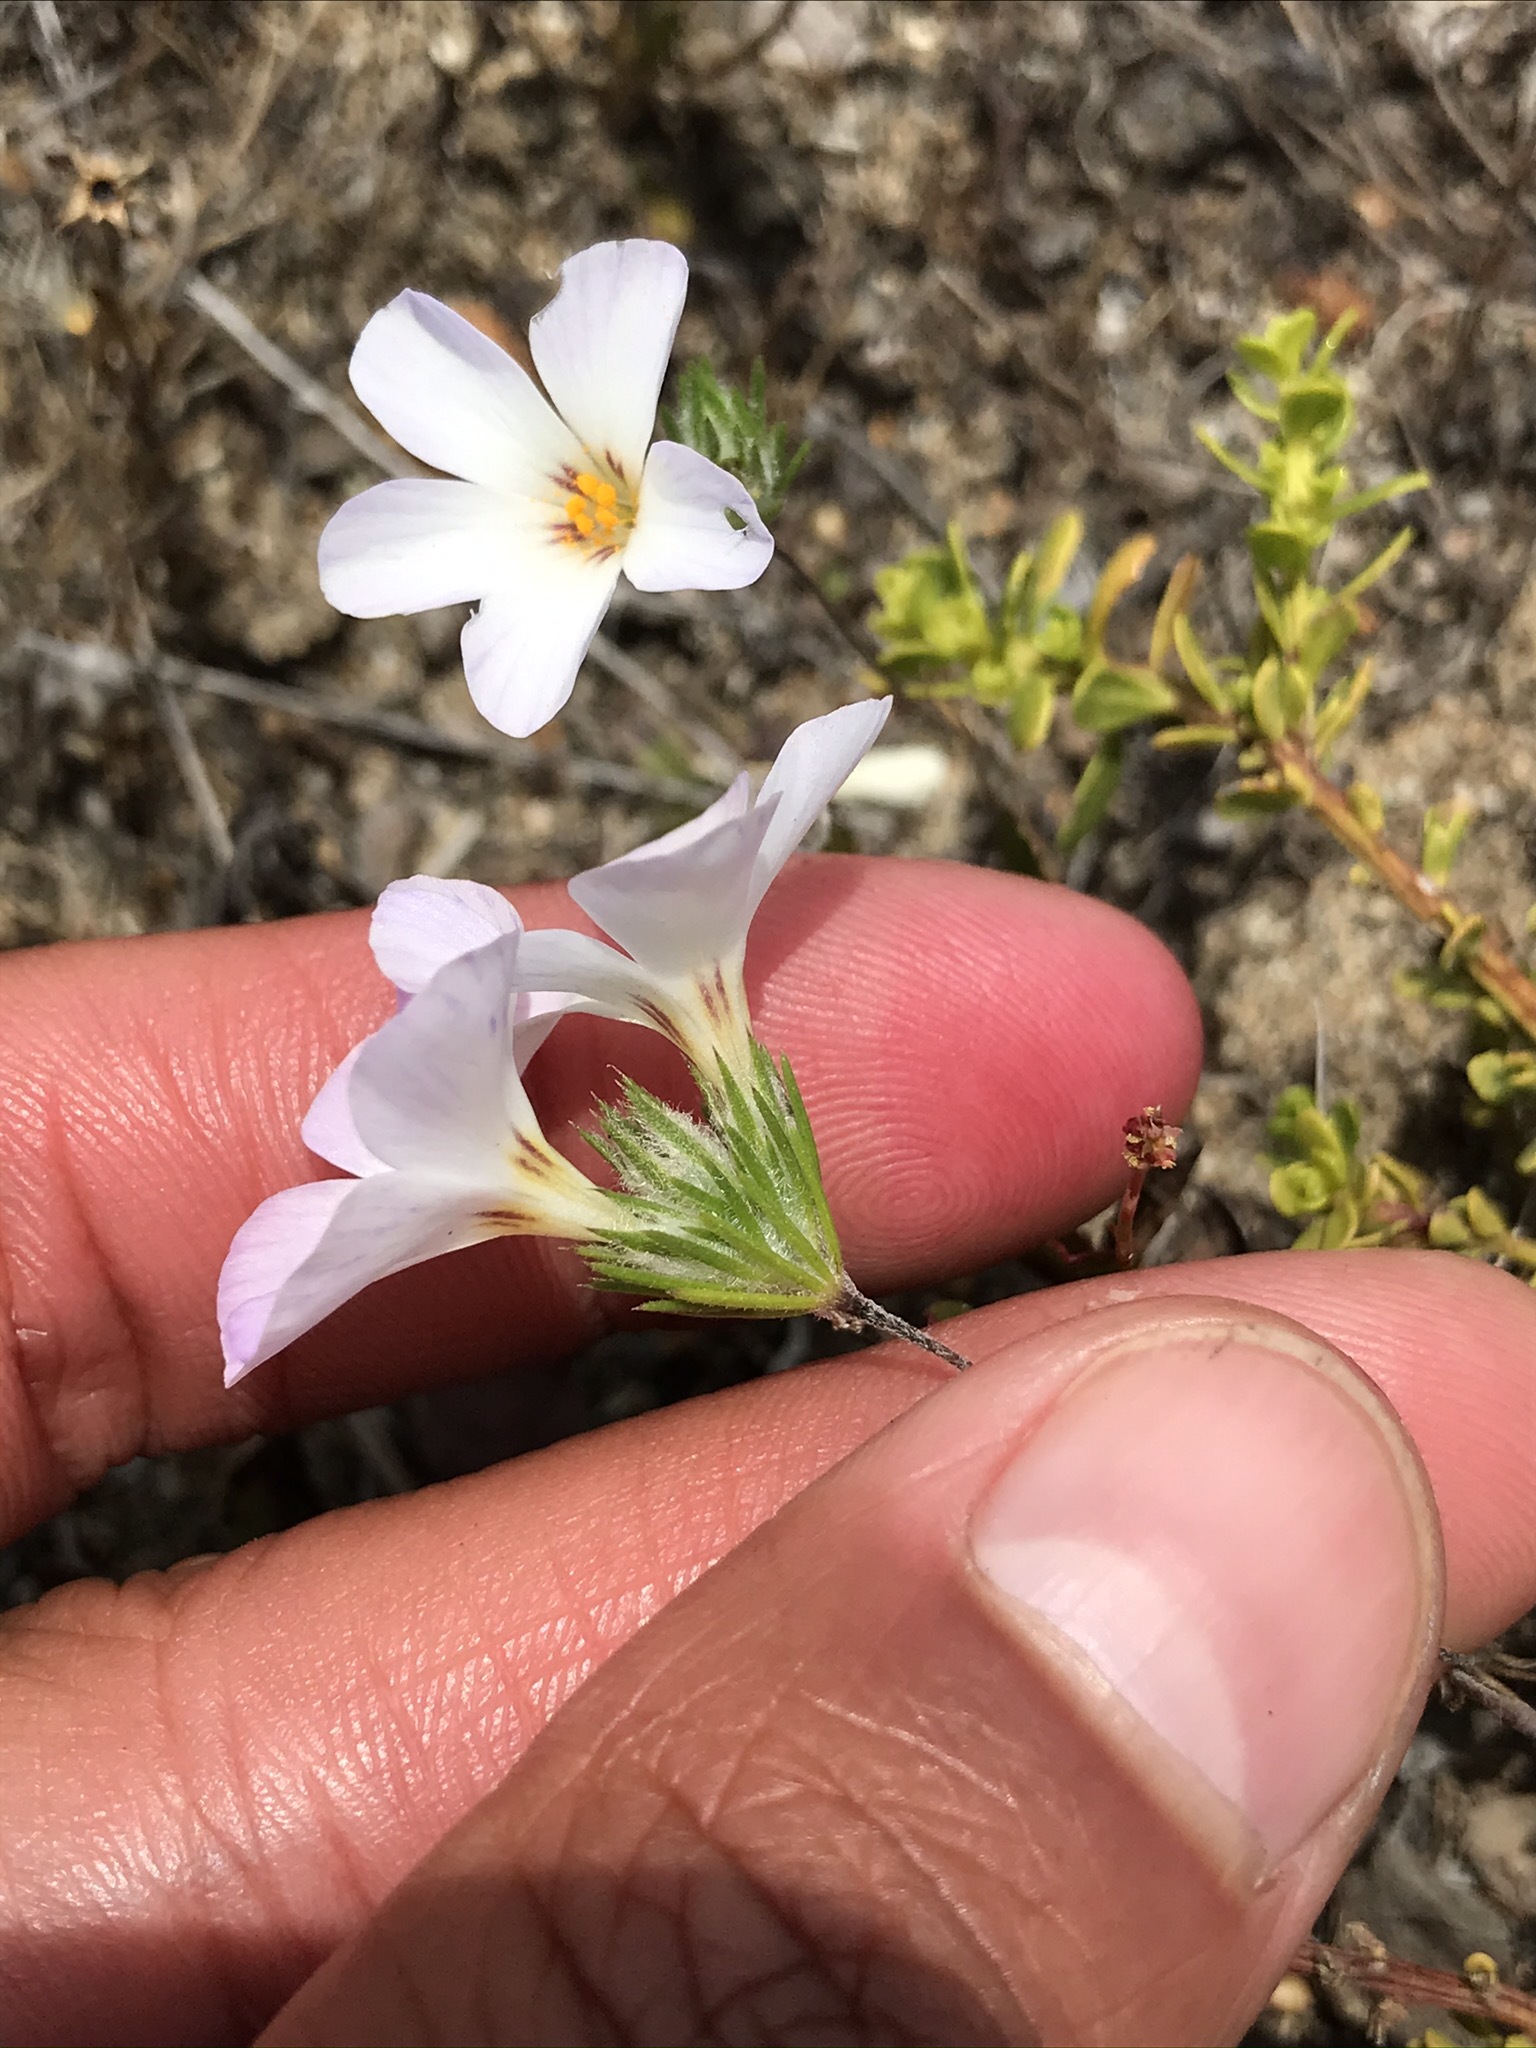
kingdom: Plantae
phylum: Tracheophyta
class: Magnoliopsida
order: Ericales
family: Polemoniaceae
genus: Leptosiphon
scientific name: Leptosiphon grandiflorus
